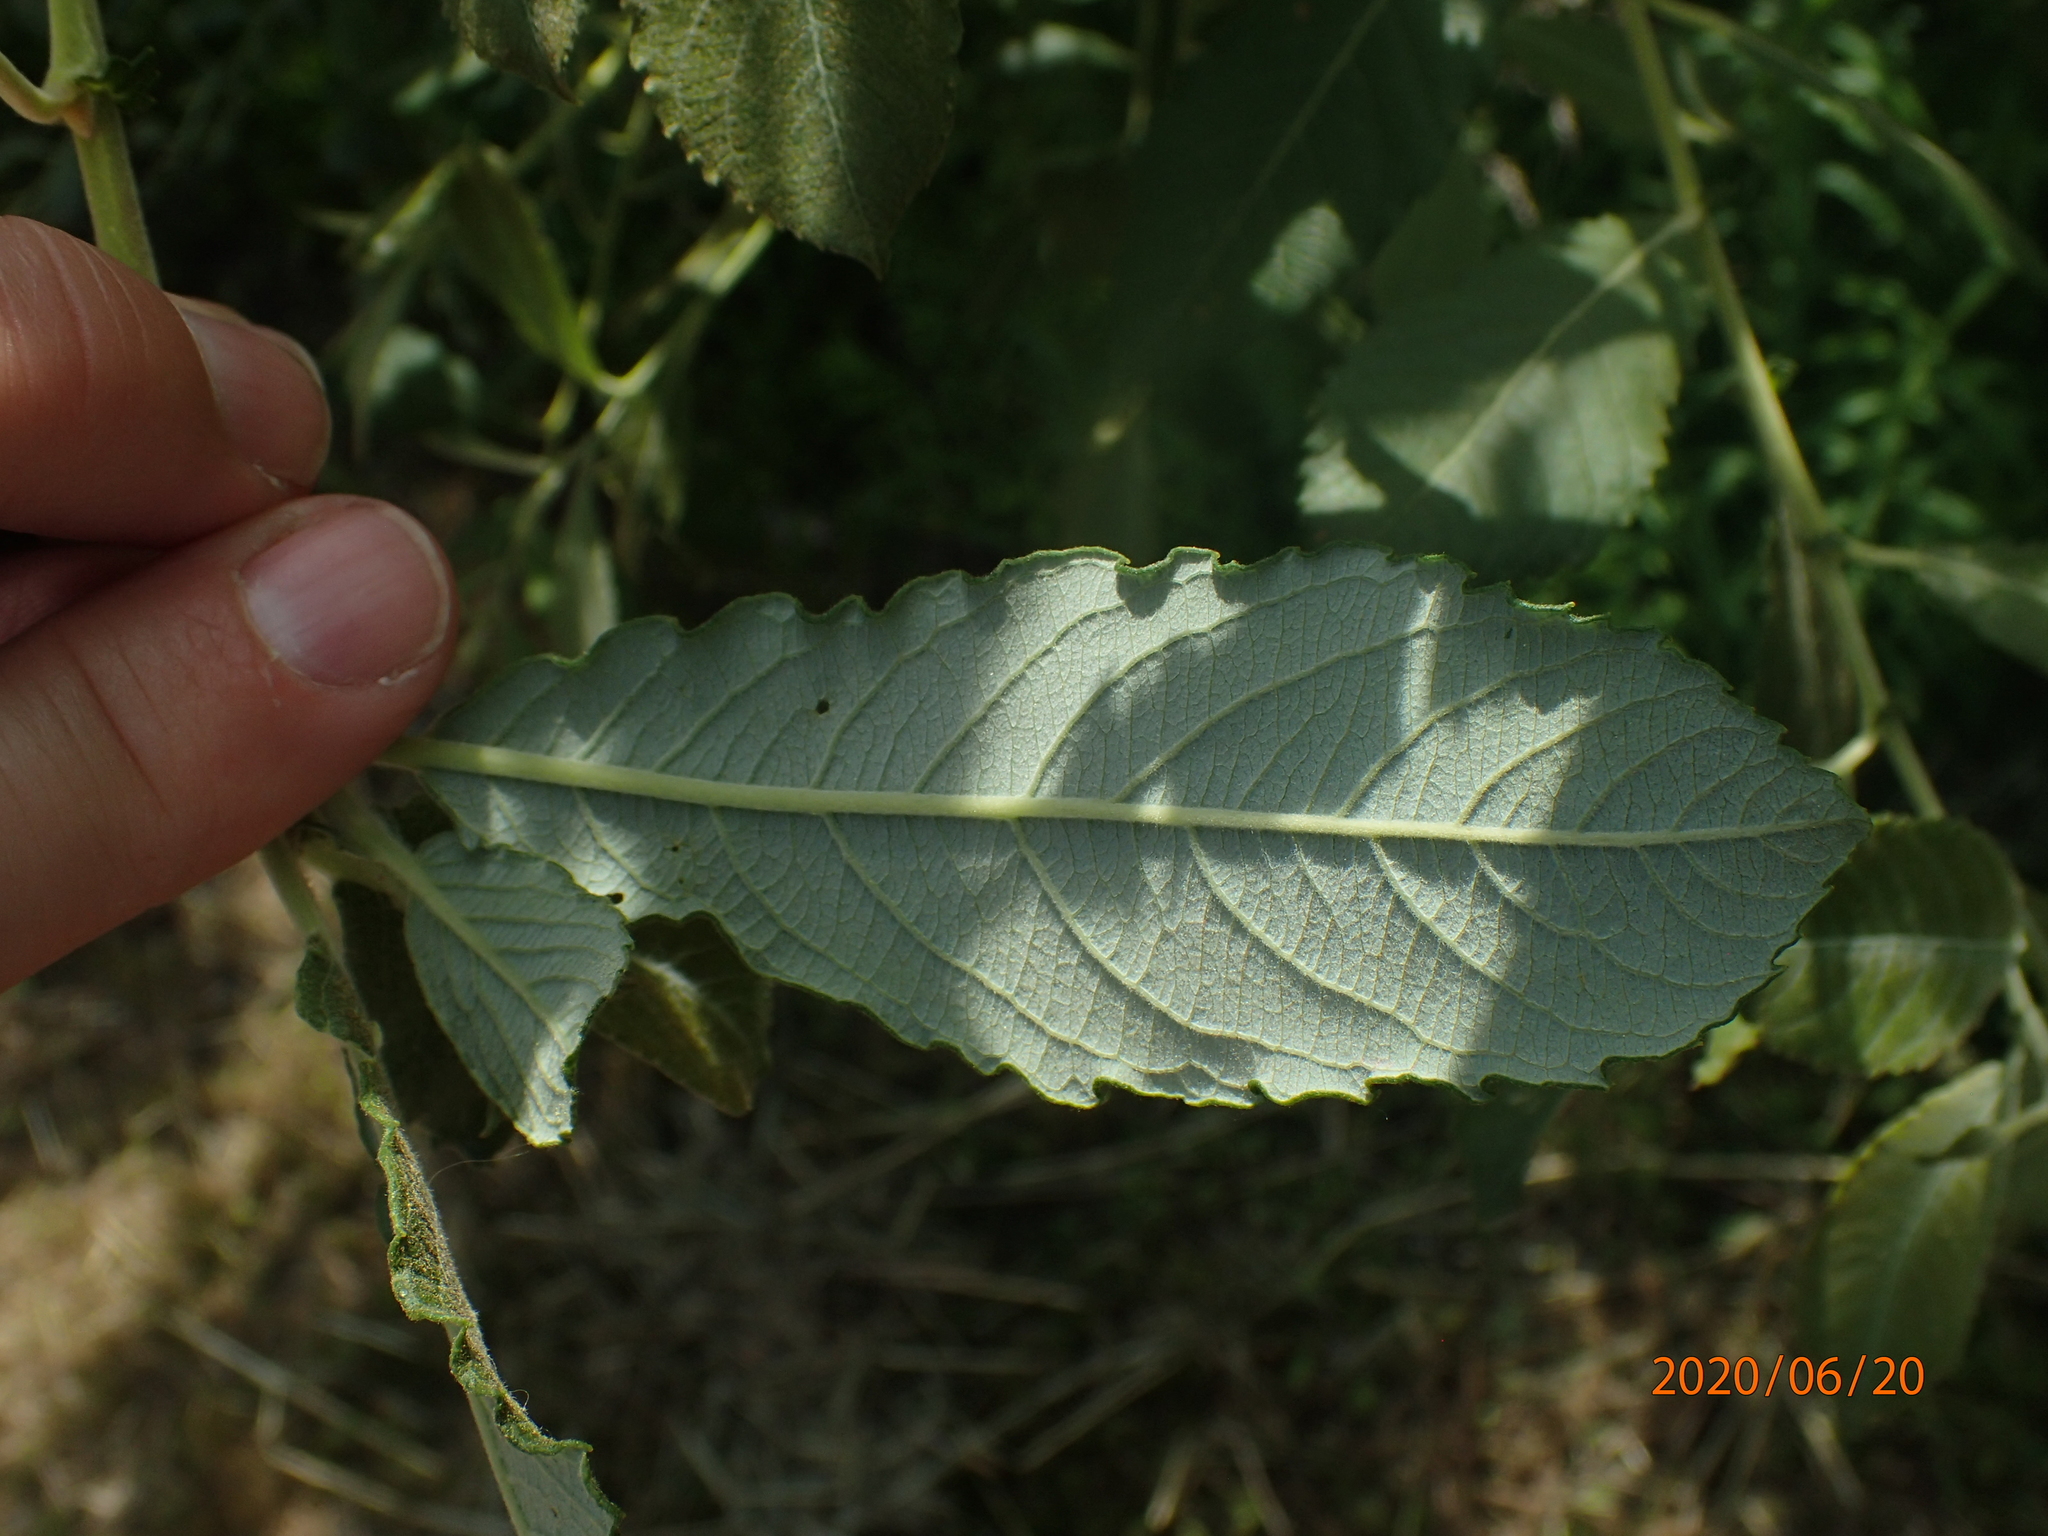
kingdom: Plantae
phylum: Tracheophyta
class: Magnoliopsida
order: Malpighiales
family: Salicaceae
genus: Salix
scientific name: Salix cinerea
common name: Common sallow
